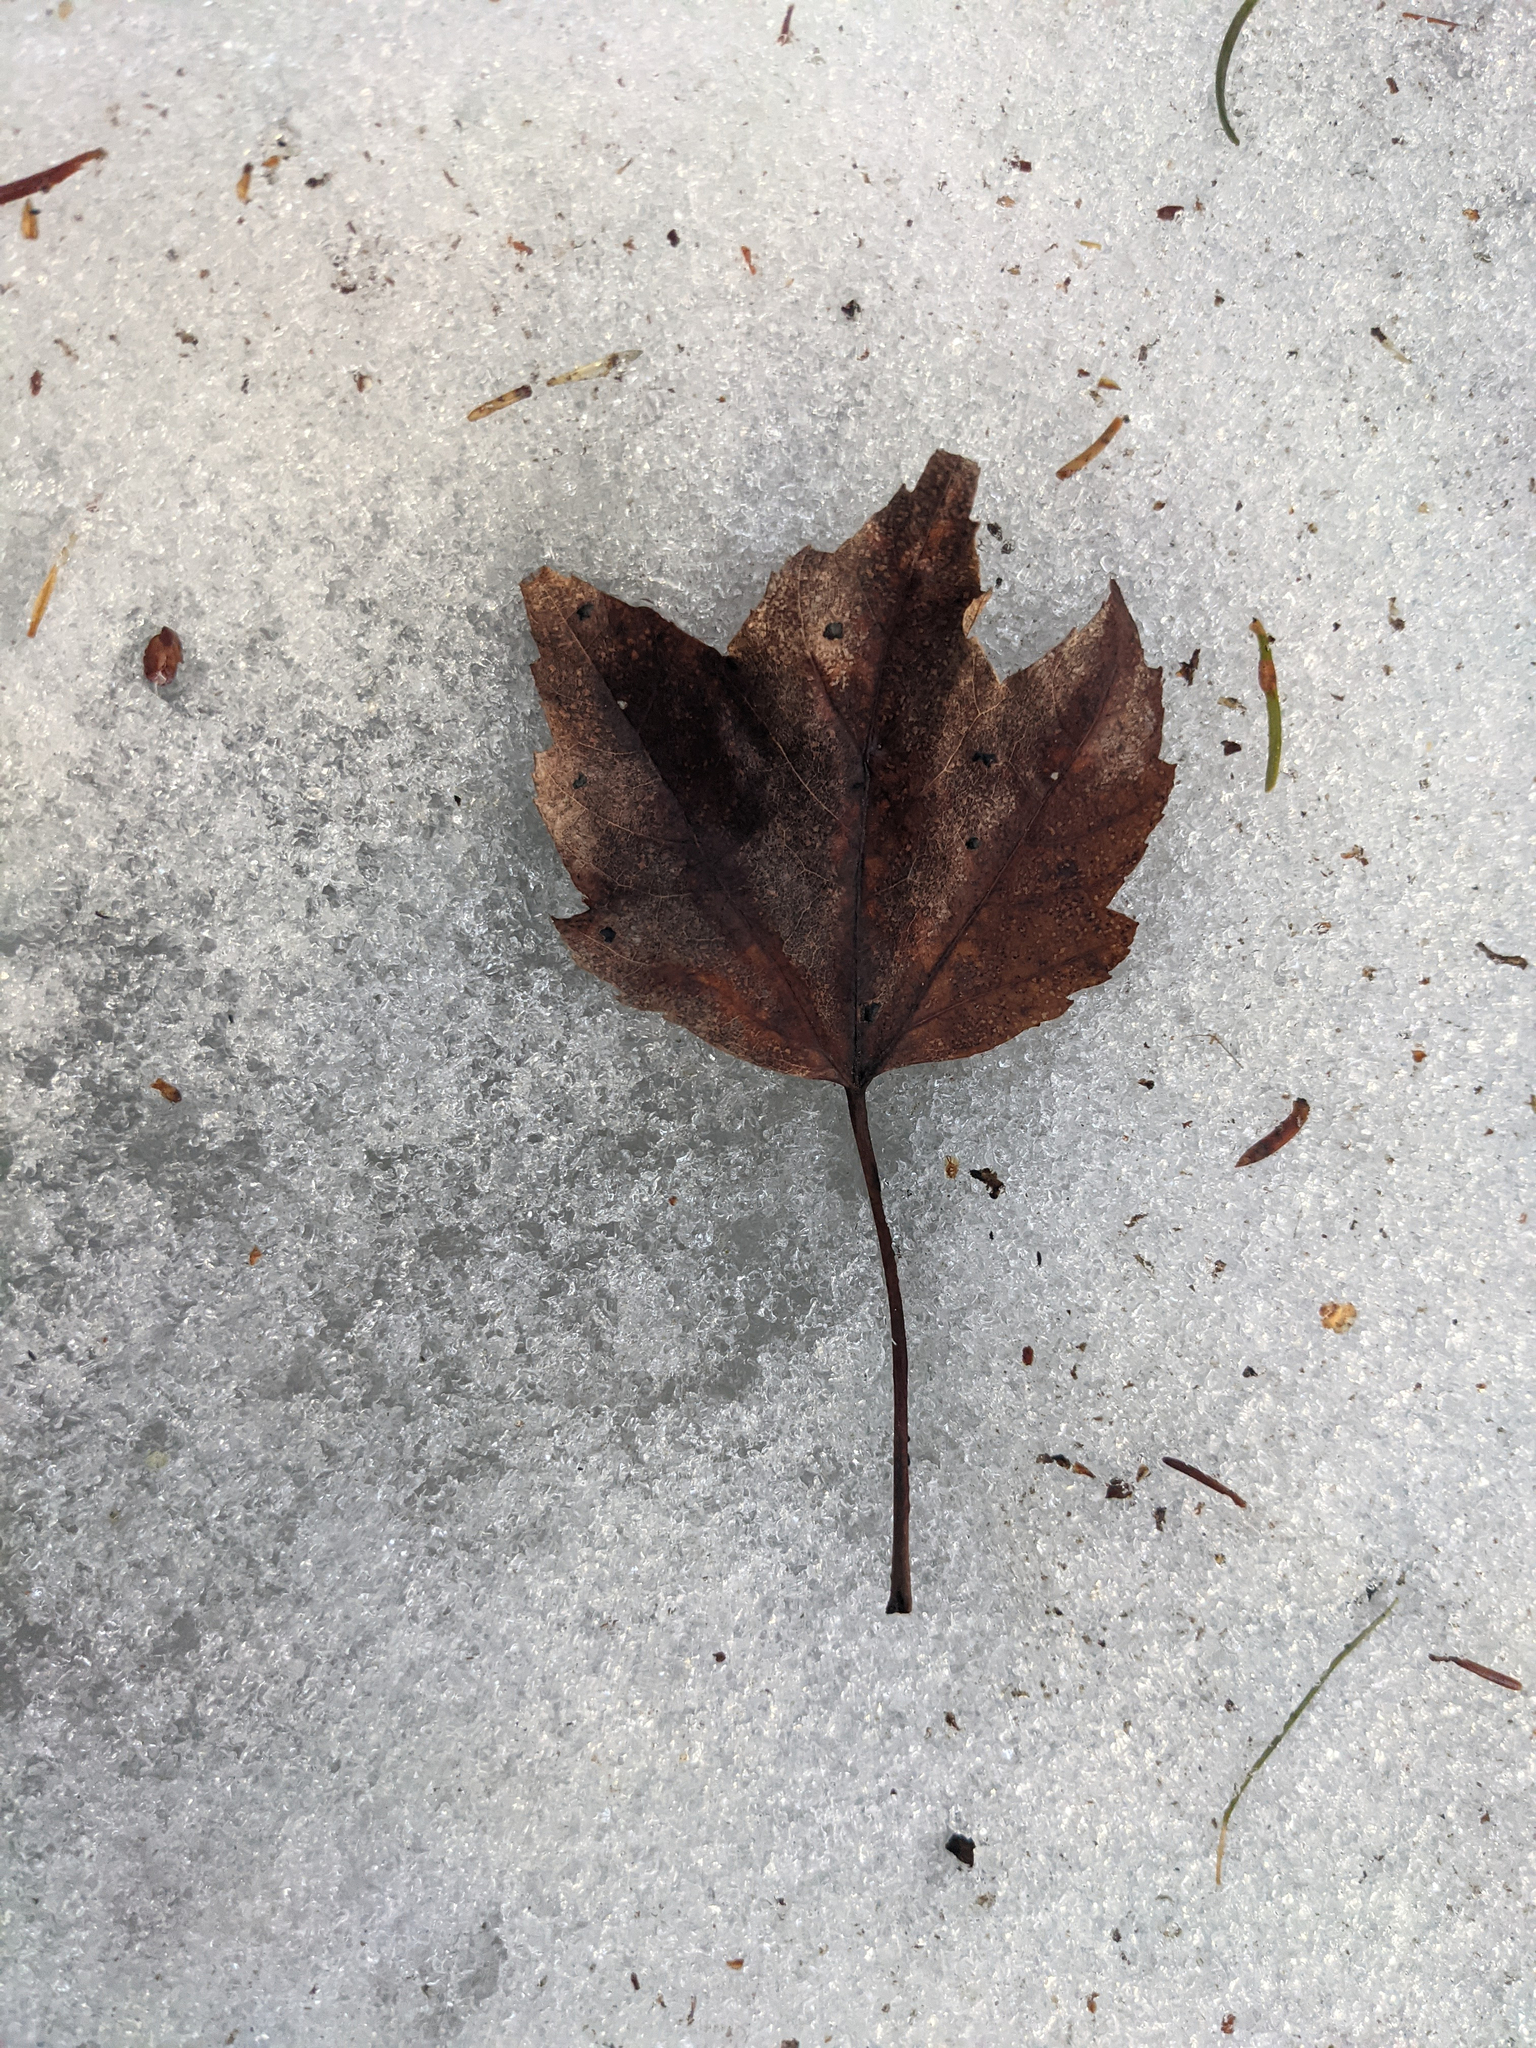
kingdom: Plantae
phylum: Tracheophyta
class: Magnoliopsida
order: Sapindales
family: Sapindaceae
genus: Acer
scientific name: Acer rubrum
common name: Red maple
